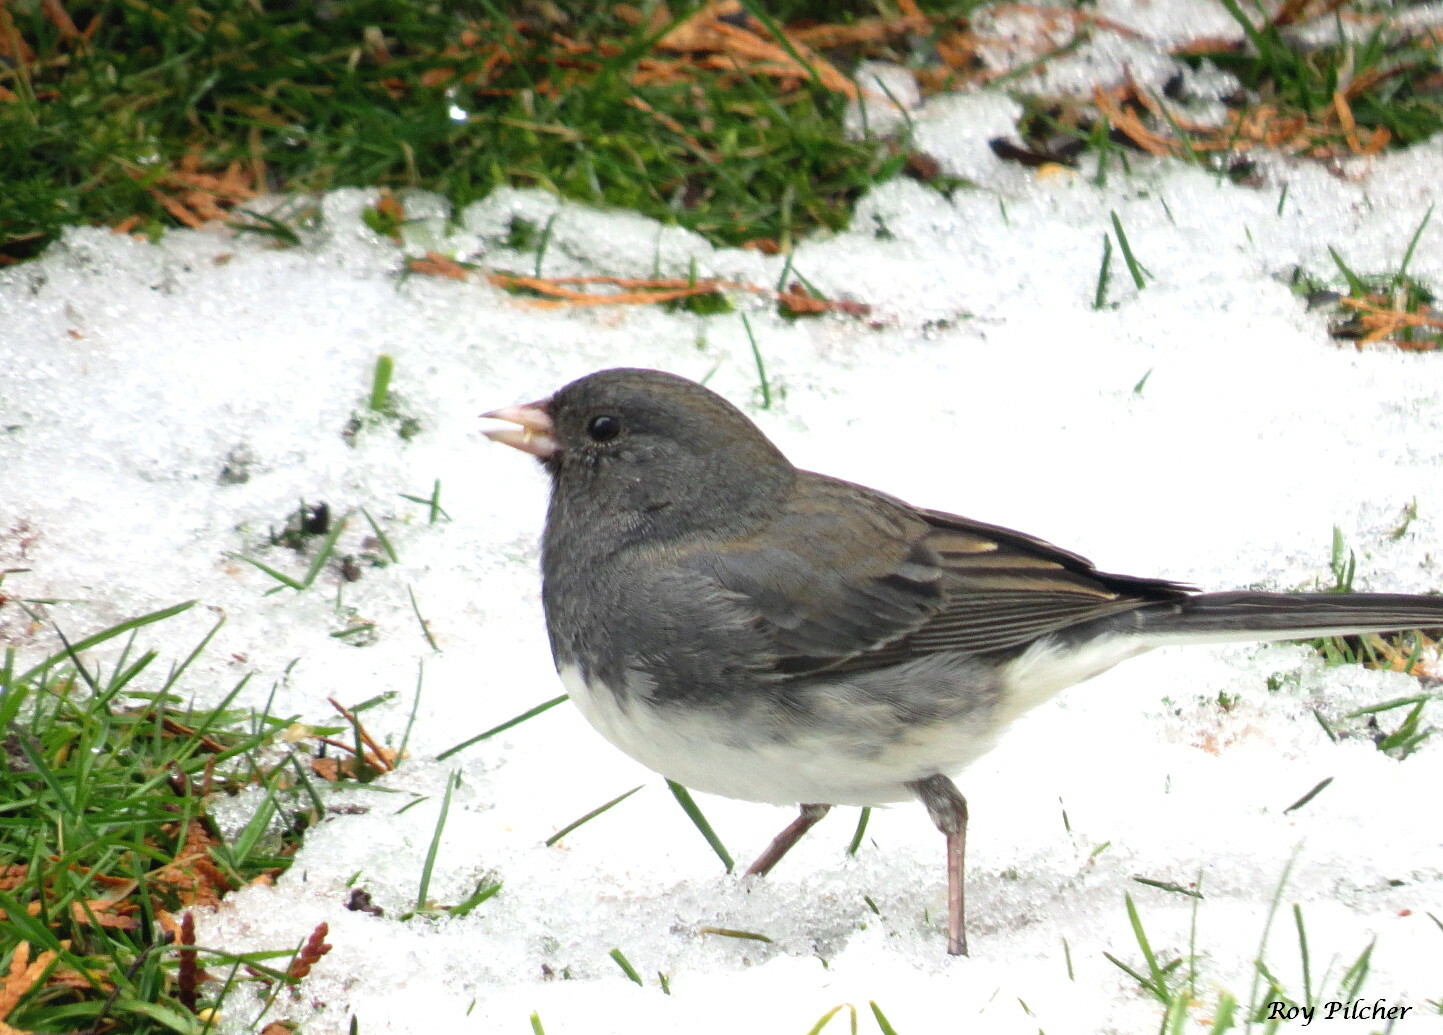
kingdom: Animalia
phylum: Chordata
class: Aves
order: Passeriformes
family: Passerellidae
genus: Junco
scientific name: Junco hyemalis
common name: Dark-eyed junco
